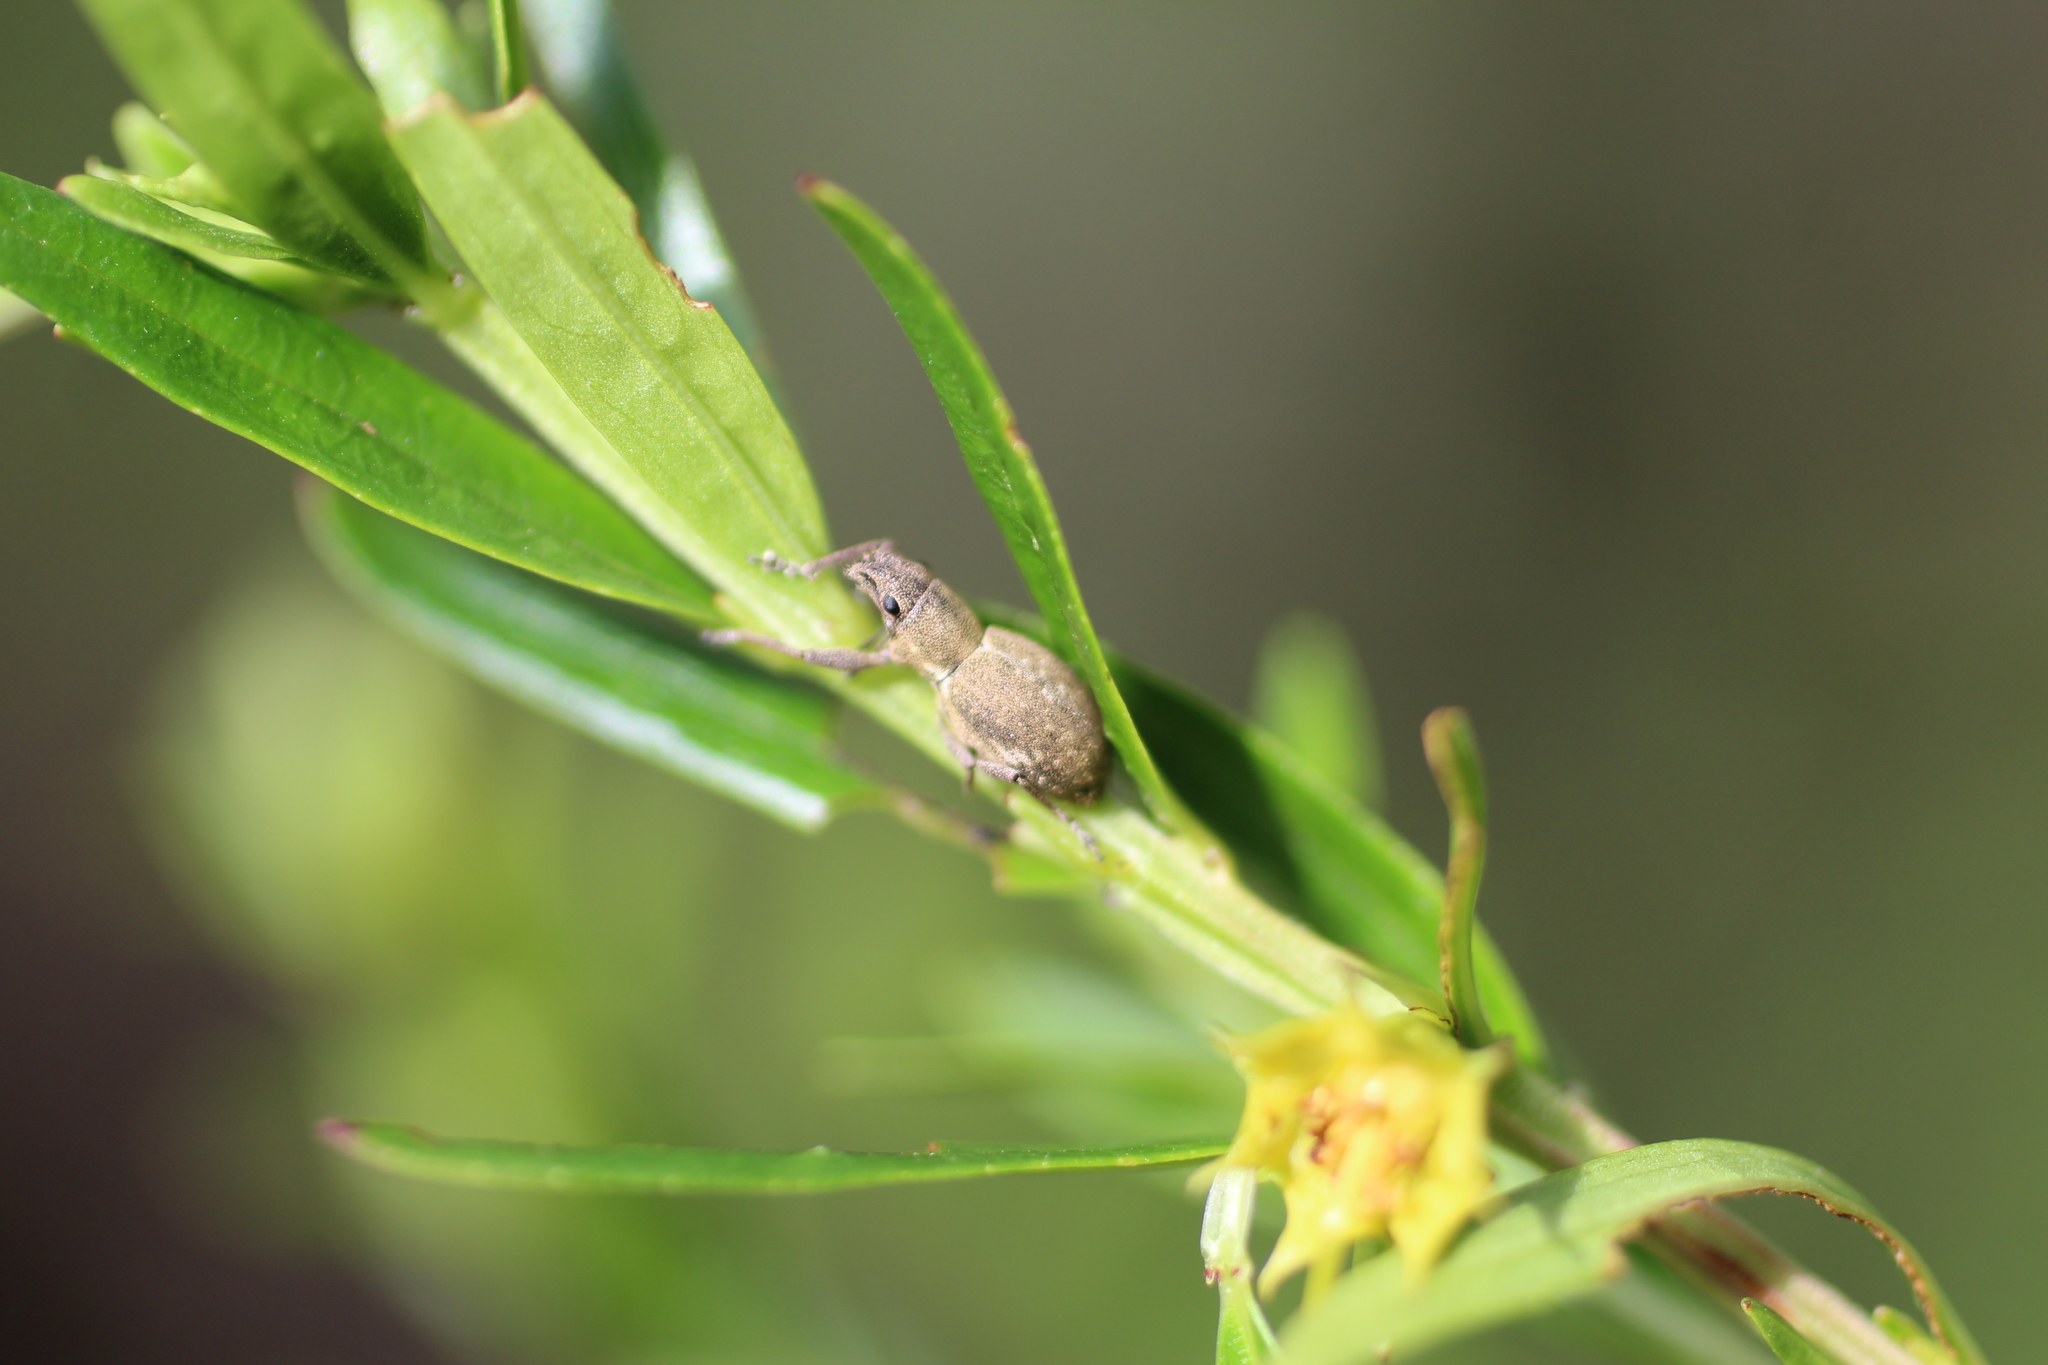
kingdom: Animalia
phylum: Arthropoda
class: Insecta
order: Coleoptera
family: Curculionidae
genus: Naupactus
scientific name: Naupactus cervinus
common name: Fuller rose beetle
